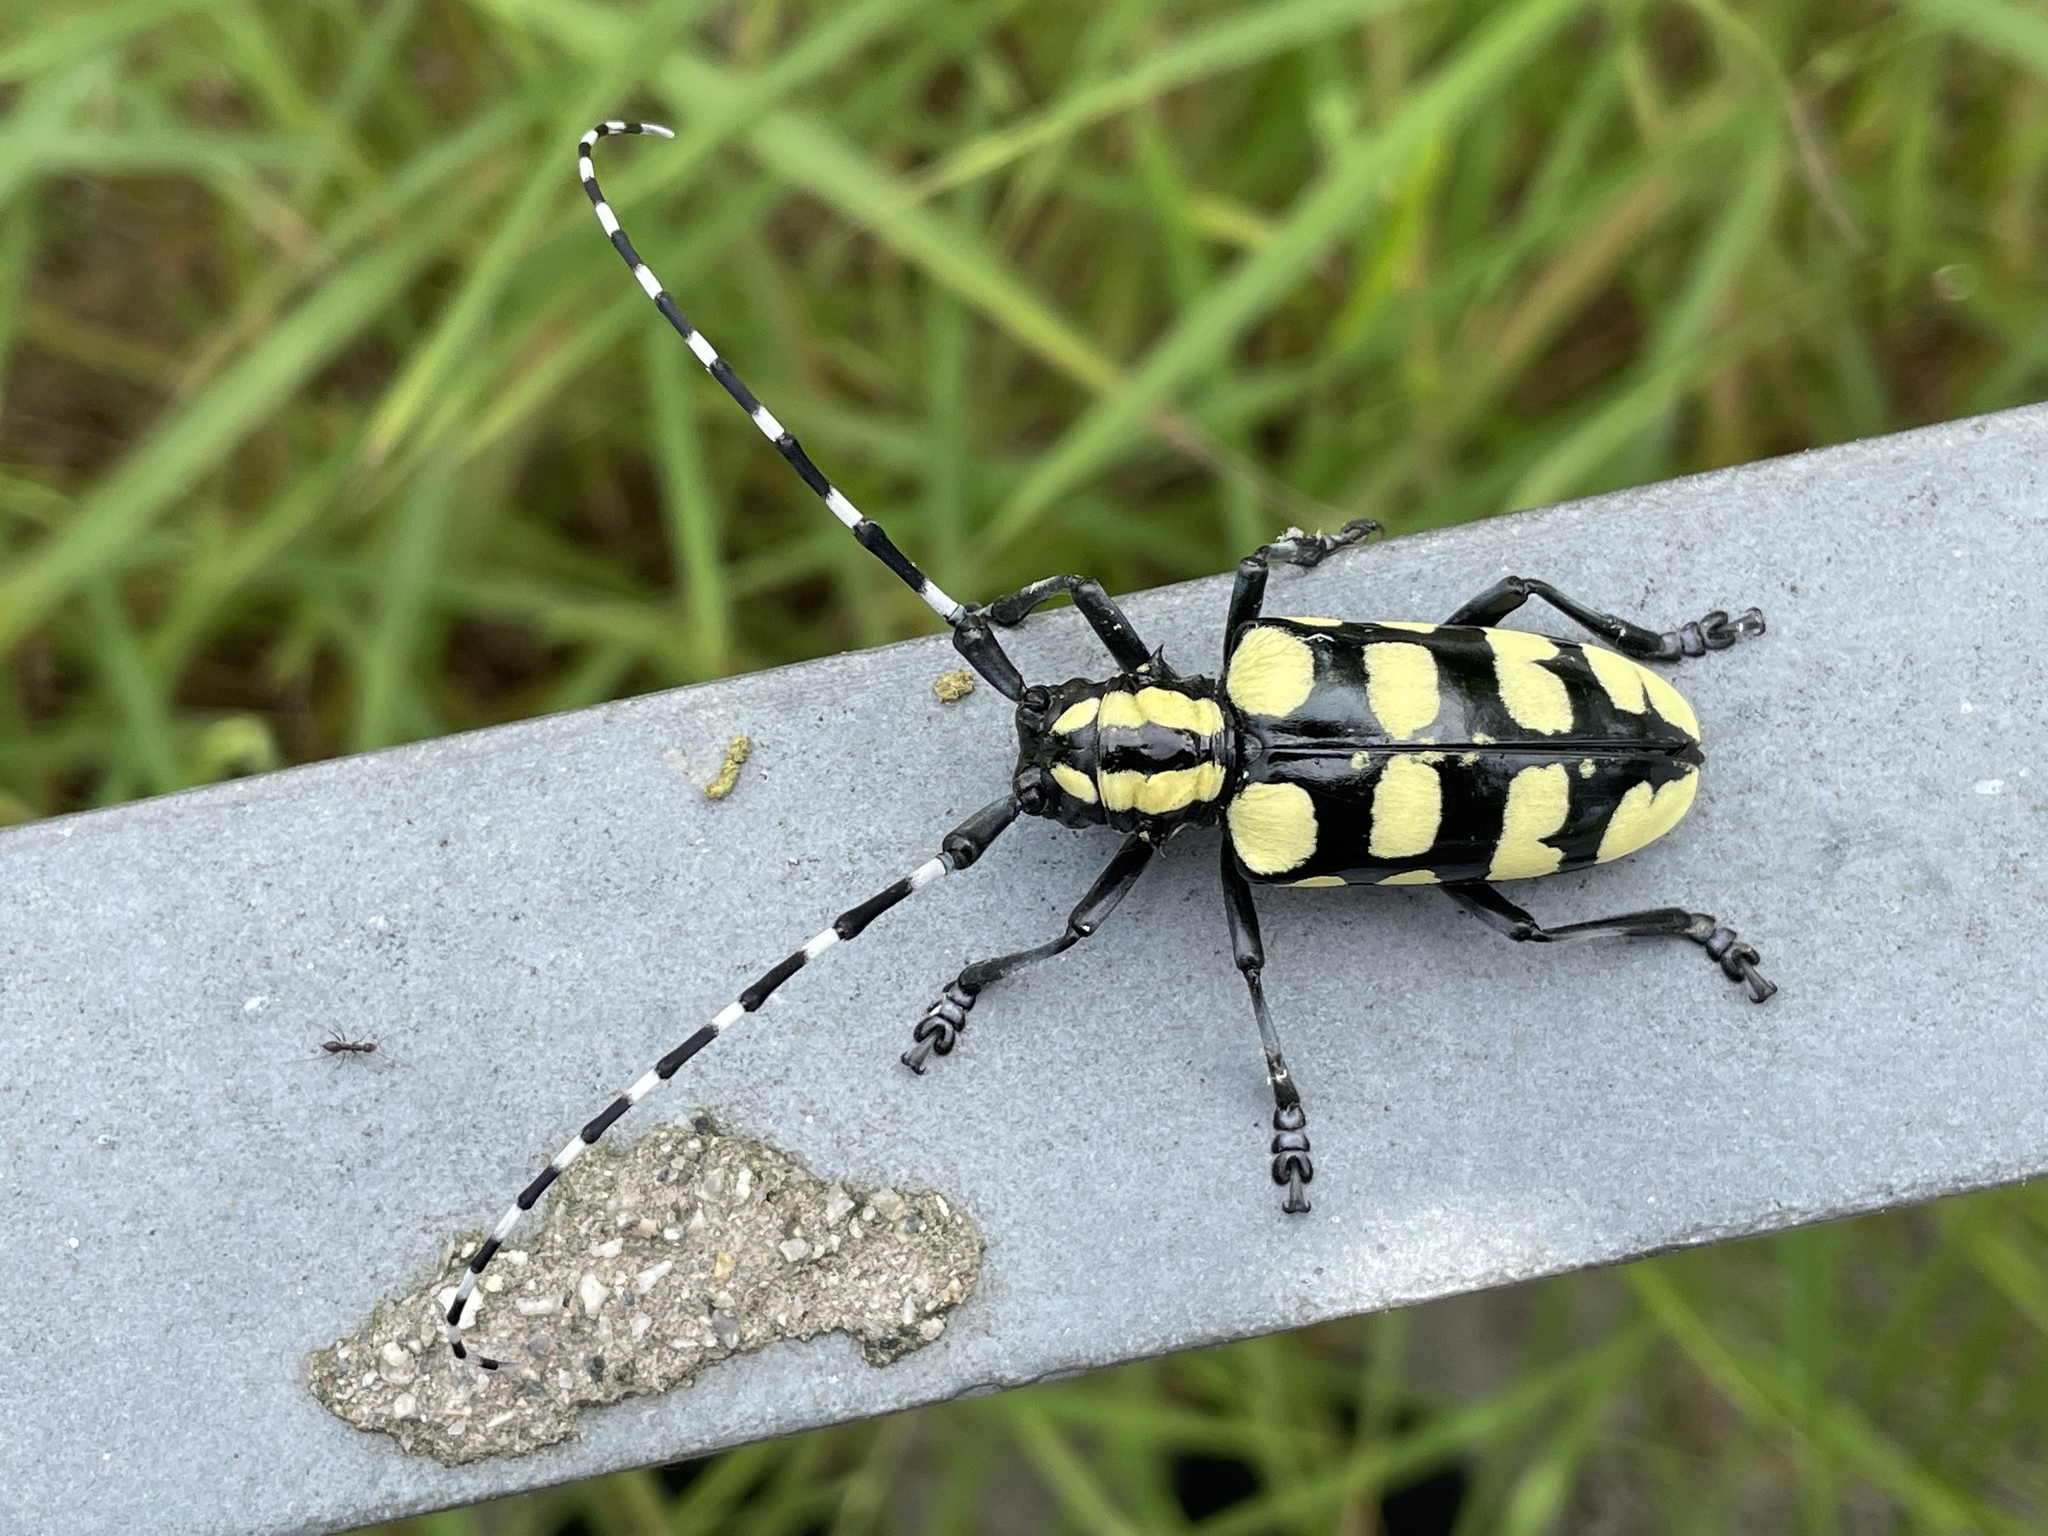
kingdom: Animalia
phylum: Arthropoda
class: Insecta
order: Coleoptera
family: Cerambycidae
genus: Anoplophora
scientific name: Anoplophora horsfieldii
